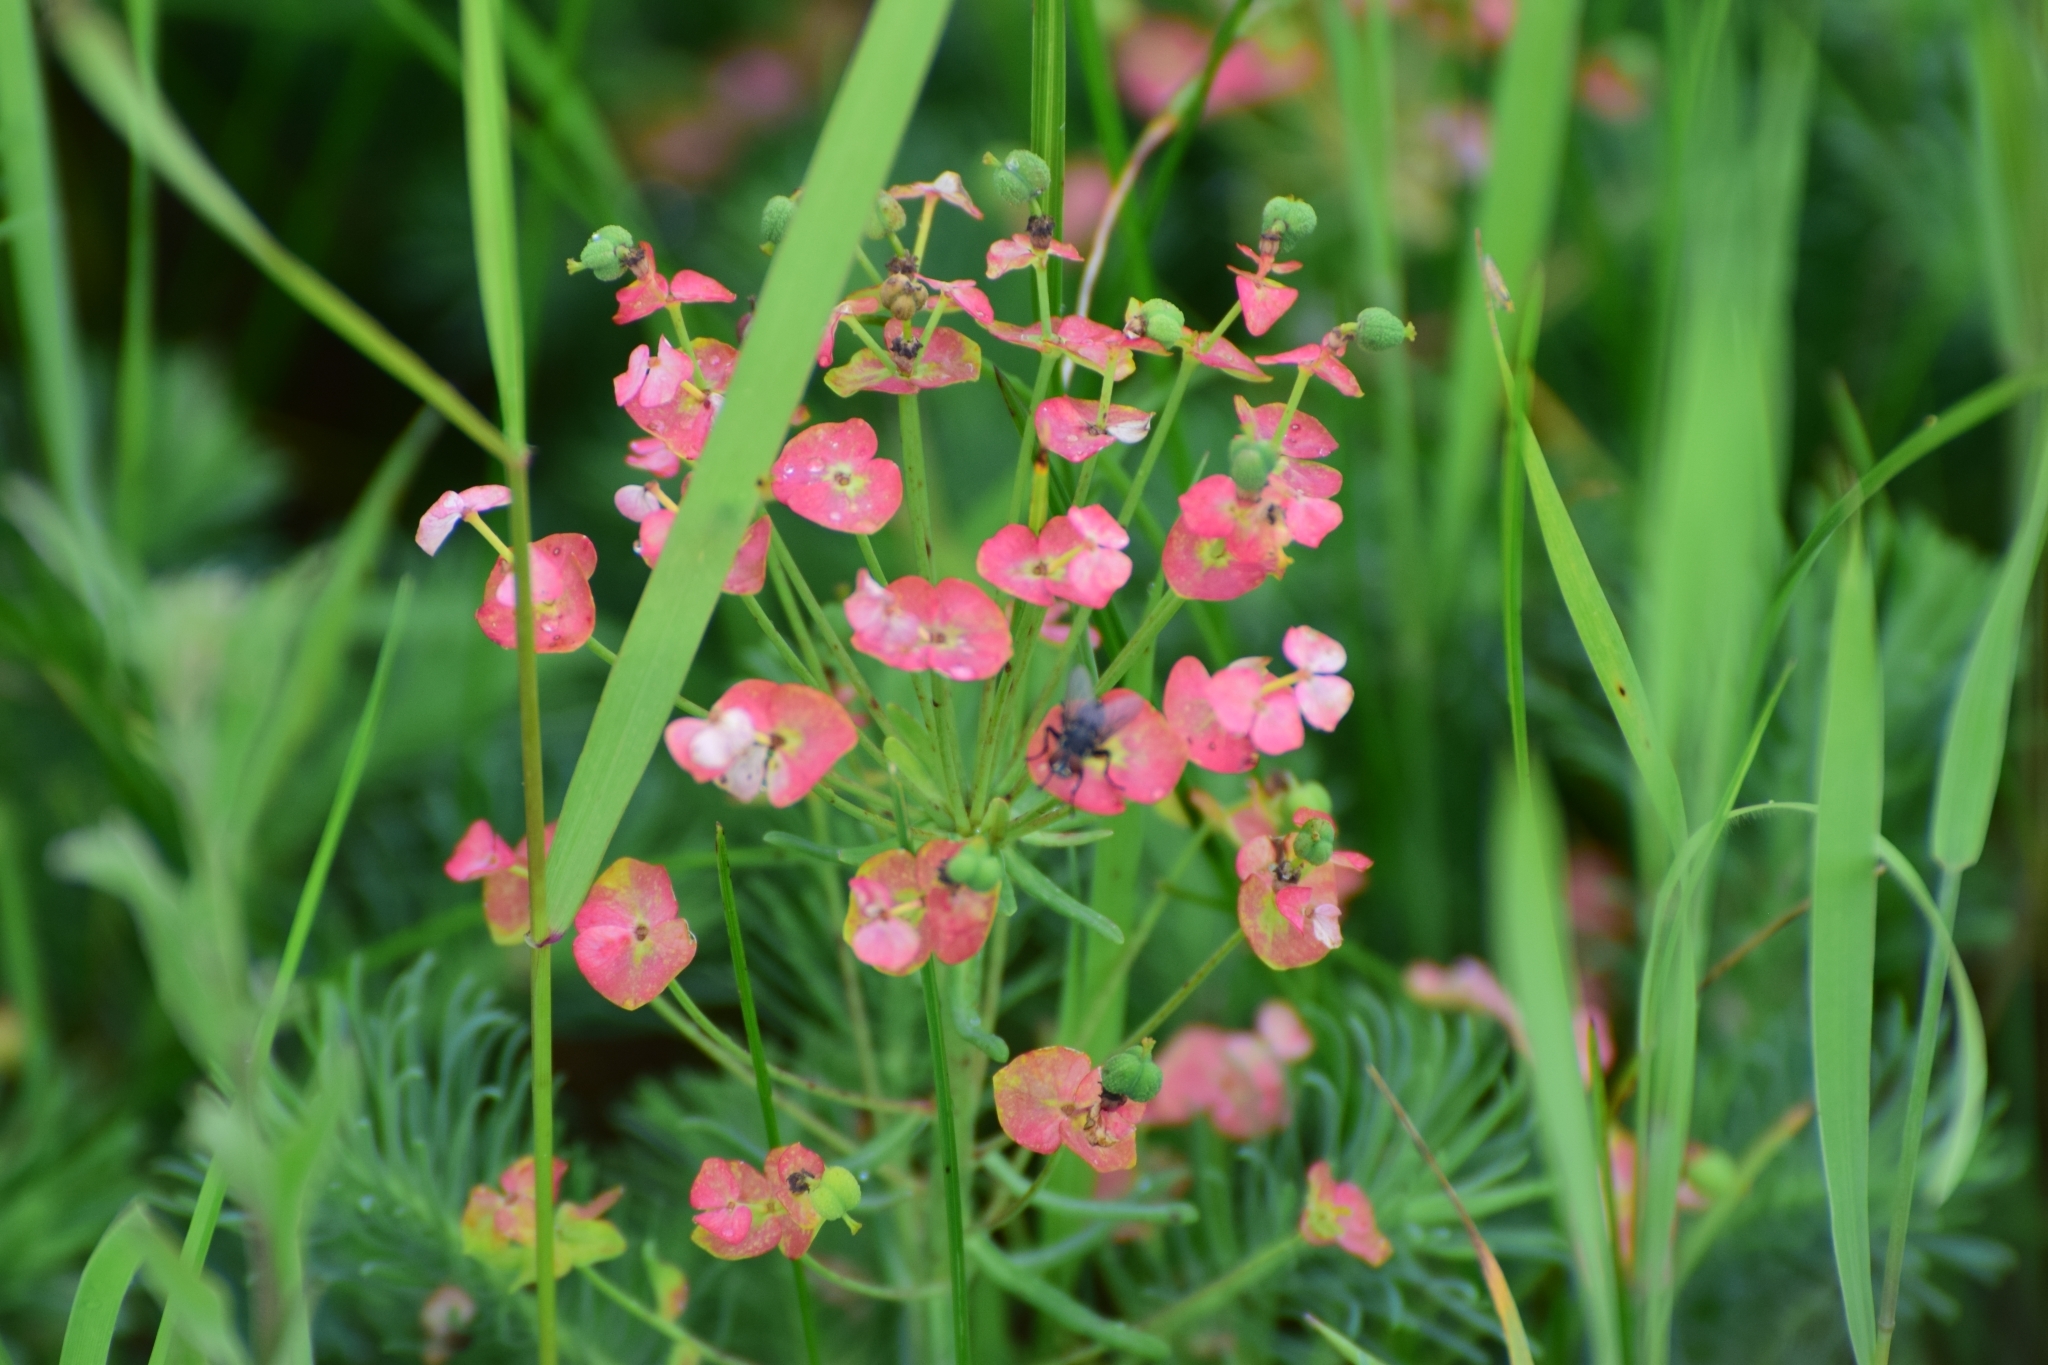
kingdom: Plantae
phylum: Tracheophyta
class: Magnoliopsida
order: Malpighiales
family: Euphorbiaceae
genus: Euphorbia
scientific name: Euphorbia cyparissias
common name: Cypress spurge
